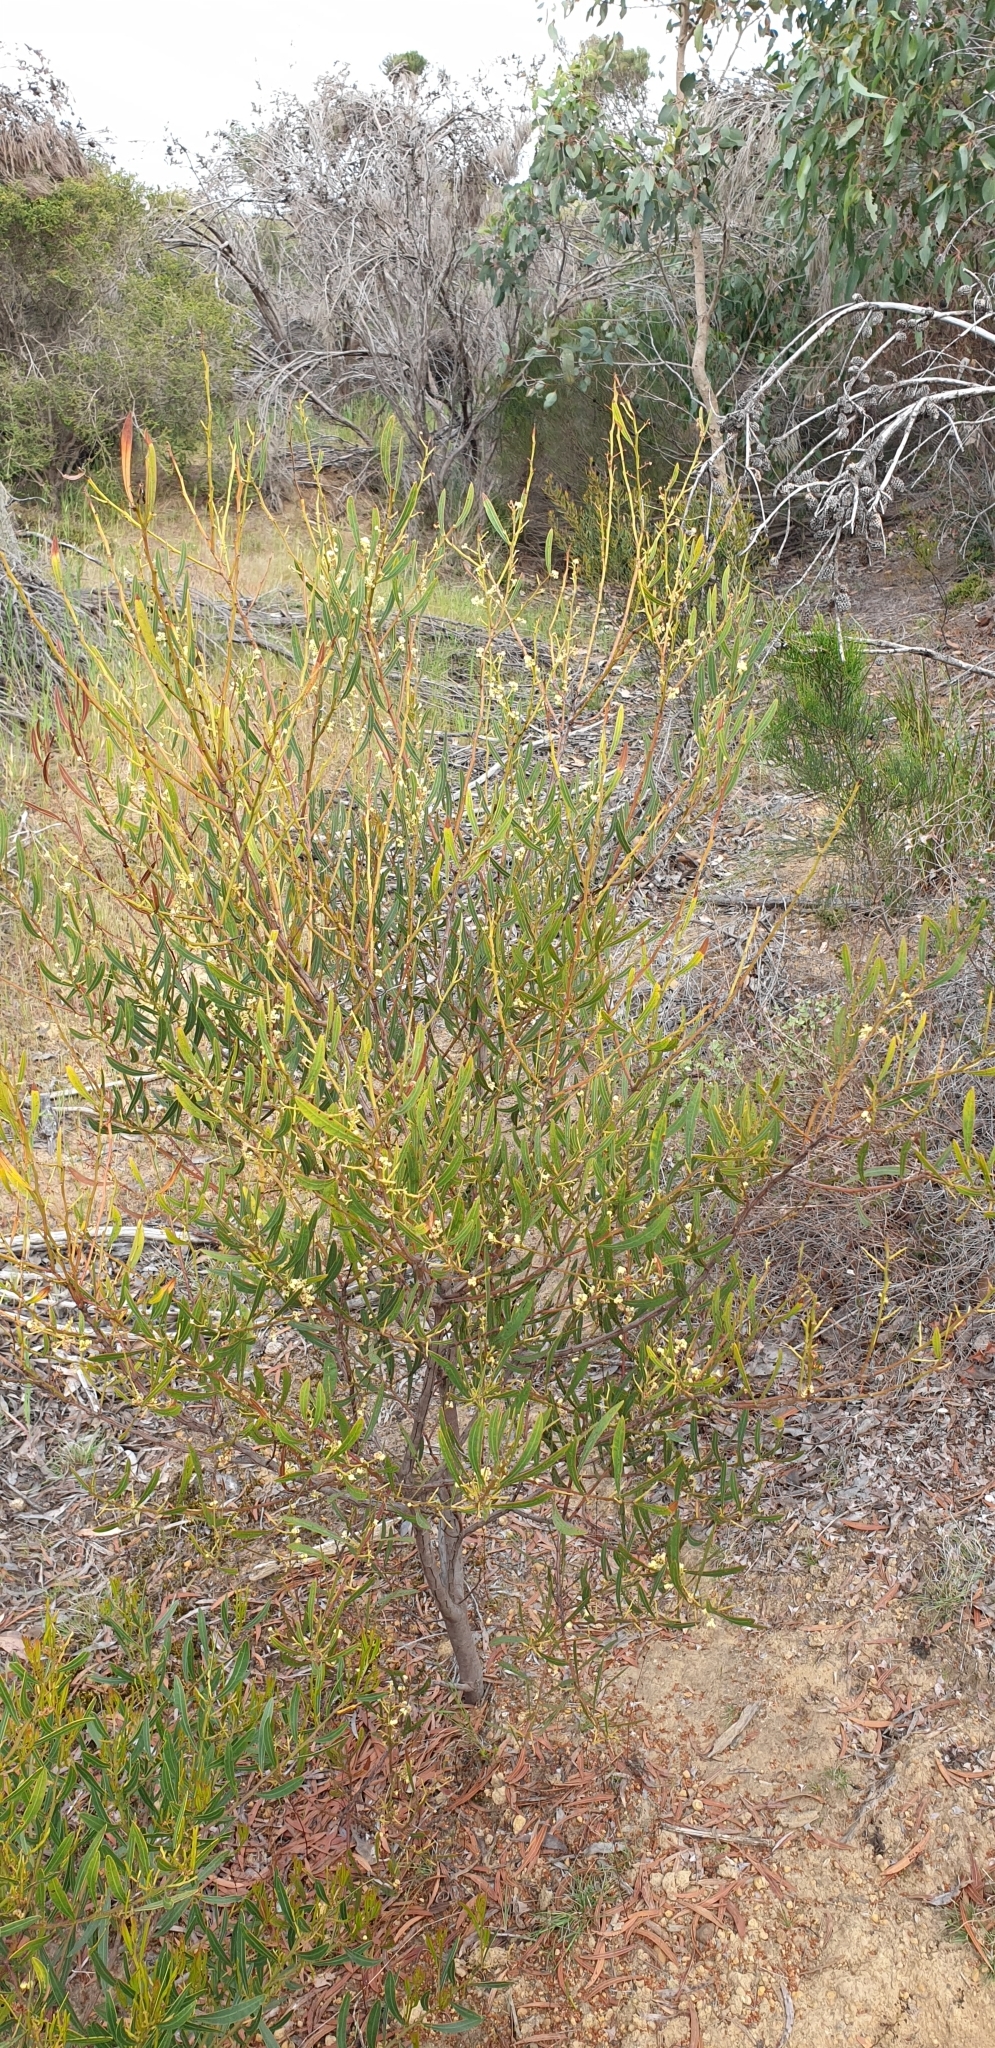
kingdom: Plantae
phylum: Tracheophyta
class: Magnoliopsida
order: Fabales
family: Fabaceae
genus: Acacia
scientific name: Acacia myrtifolia
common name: Myrtle wattle
